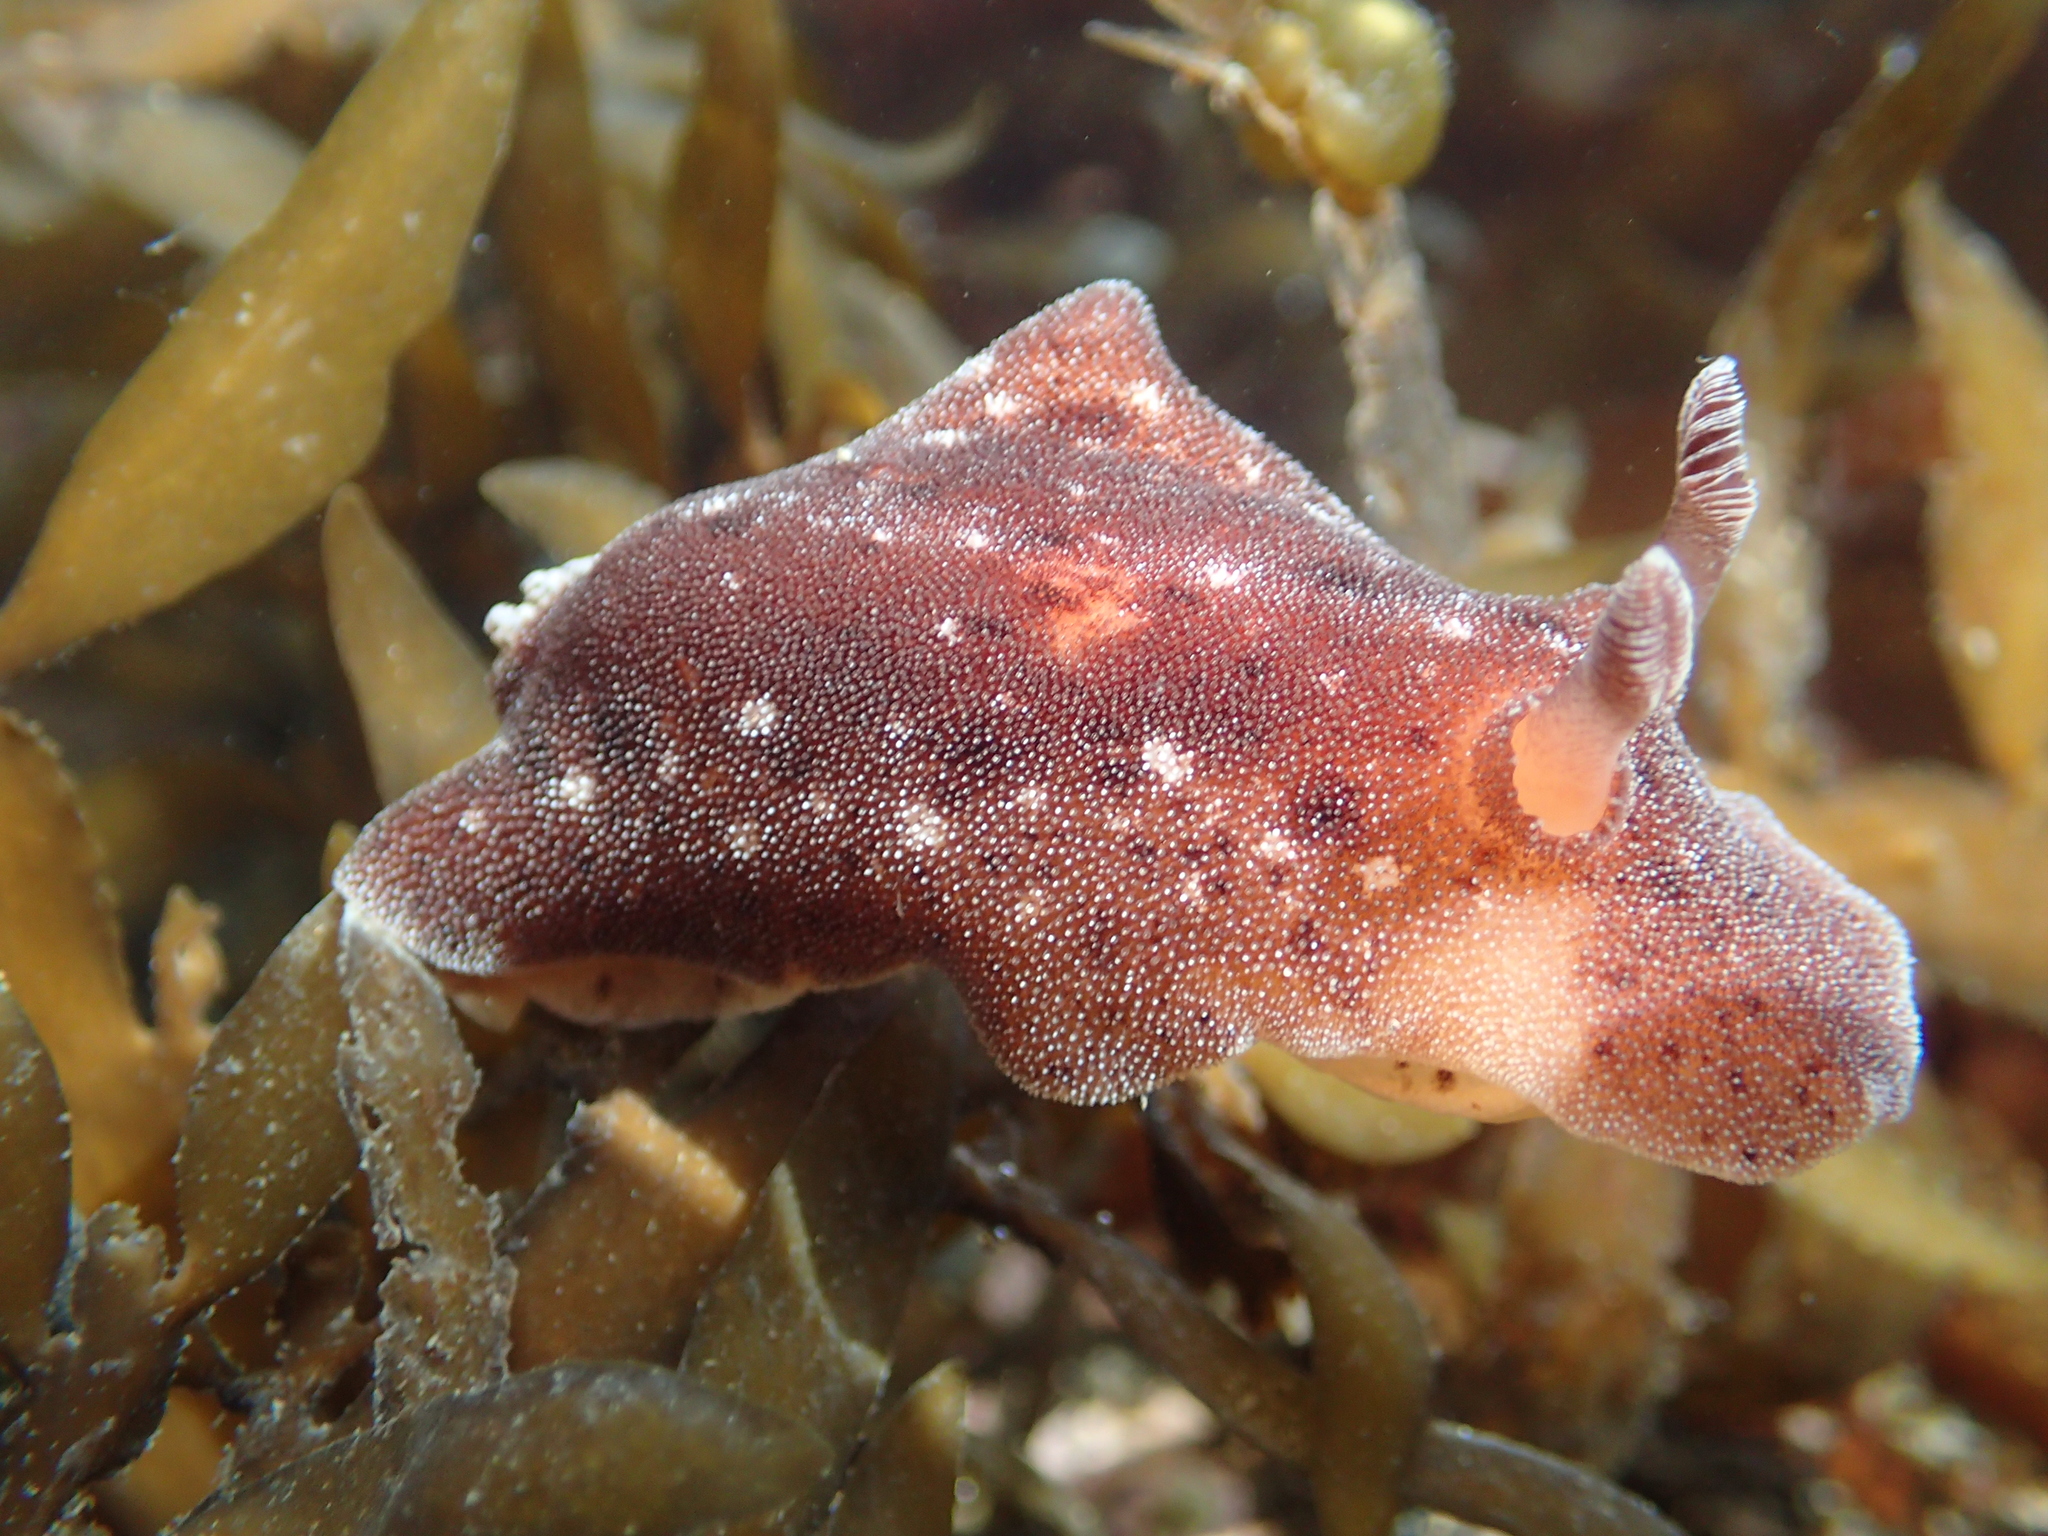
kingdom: Animalia
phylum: Mollusca
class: Gastropoda
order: Nudibranchia
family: Discodorididae
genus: Alloiodoris
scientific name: Alloiodoris lanuginata
